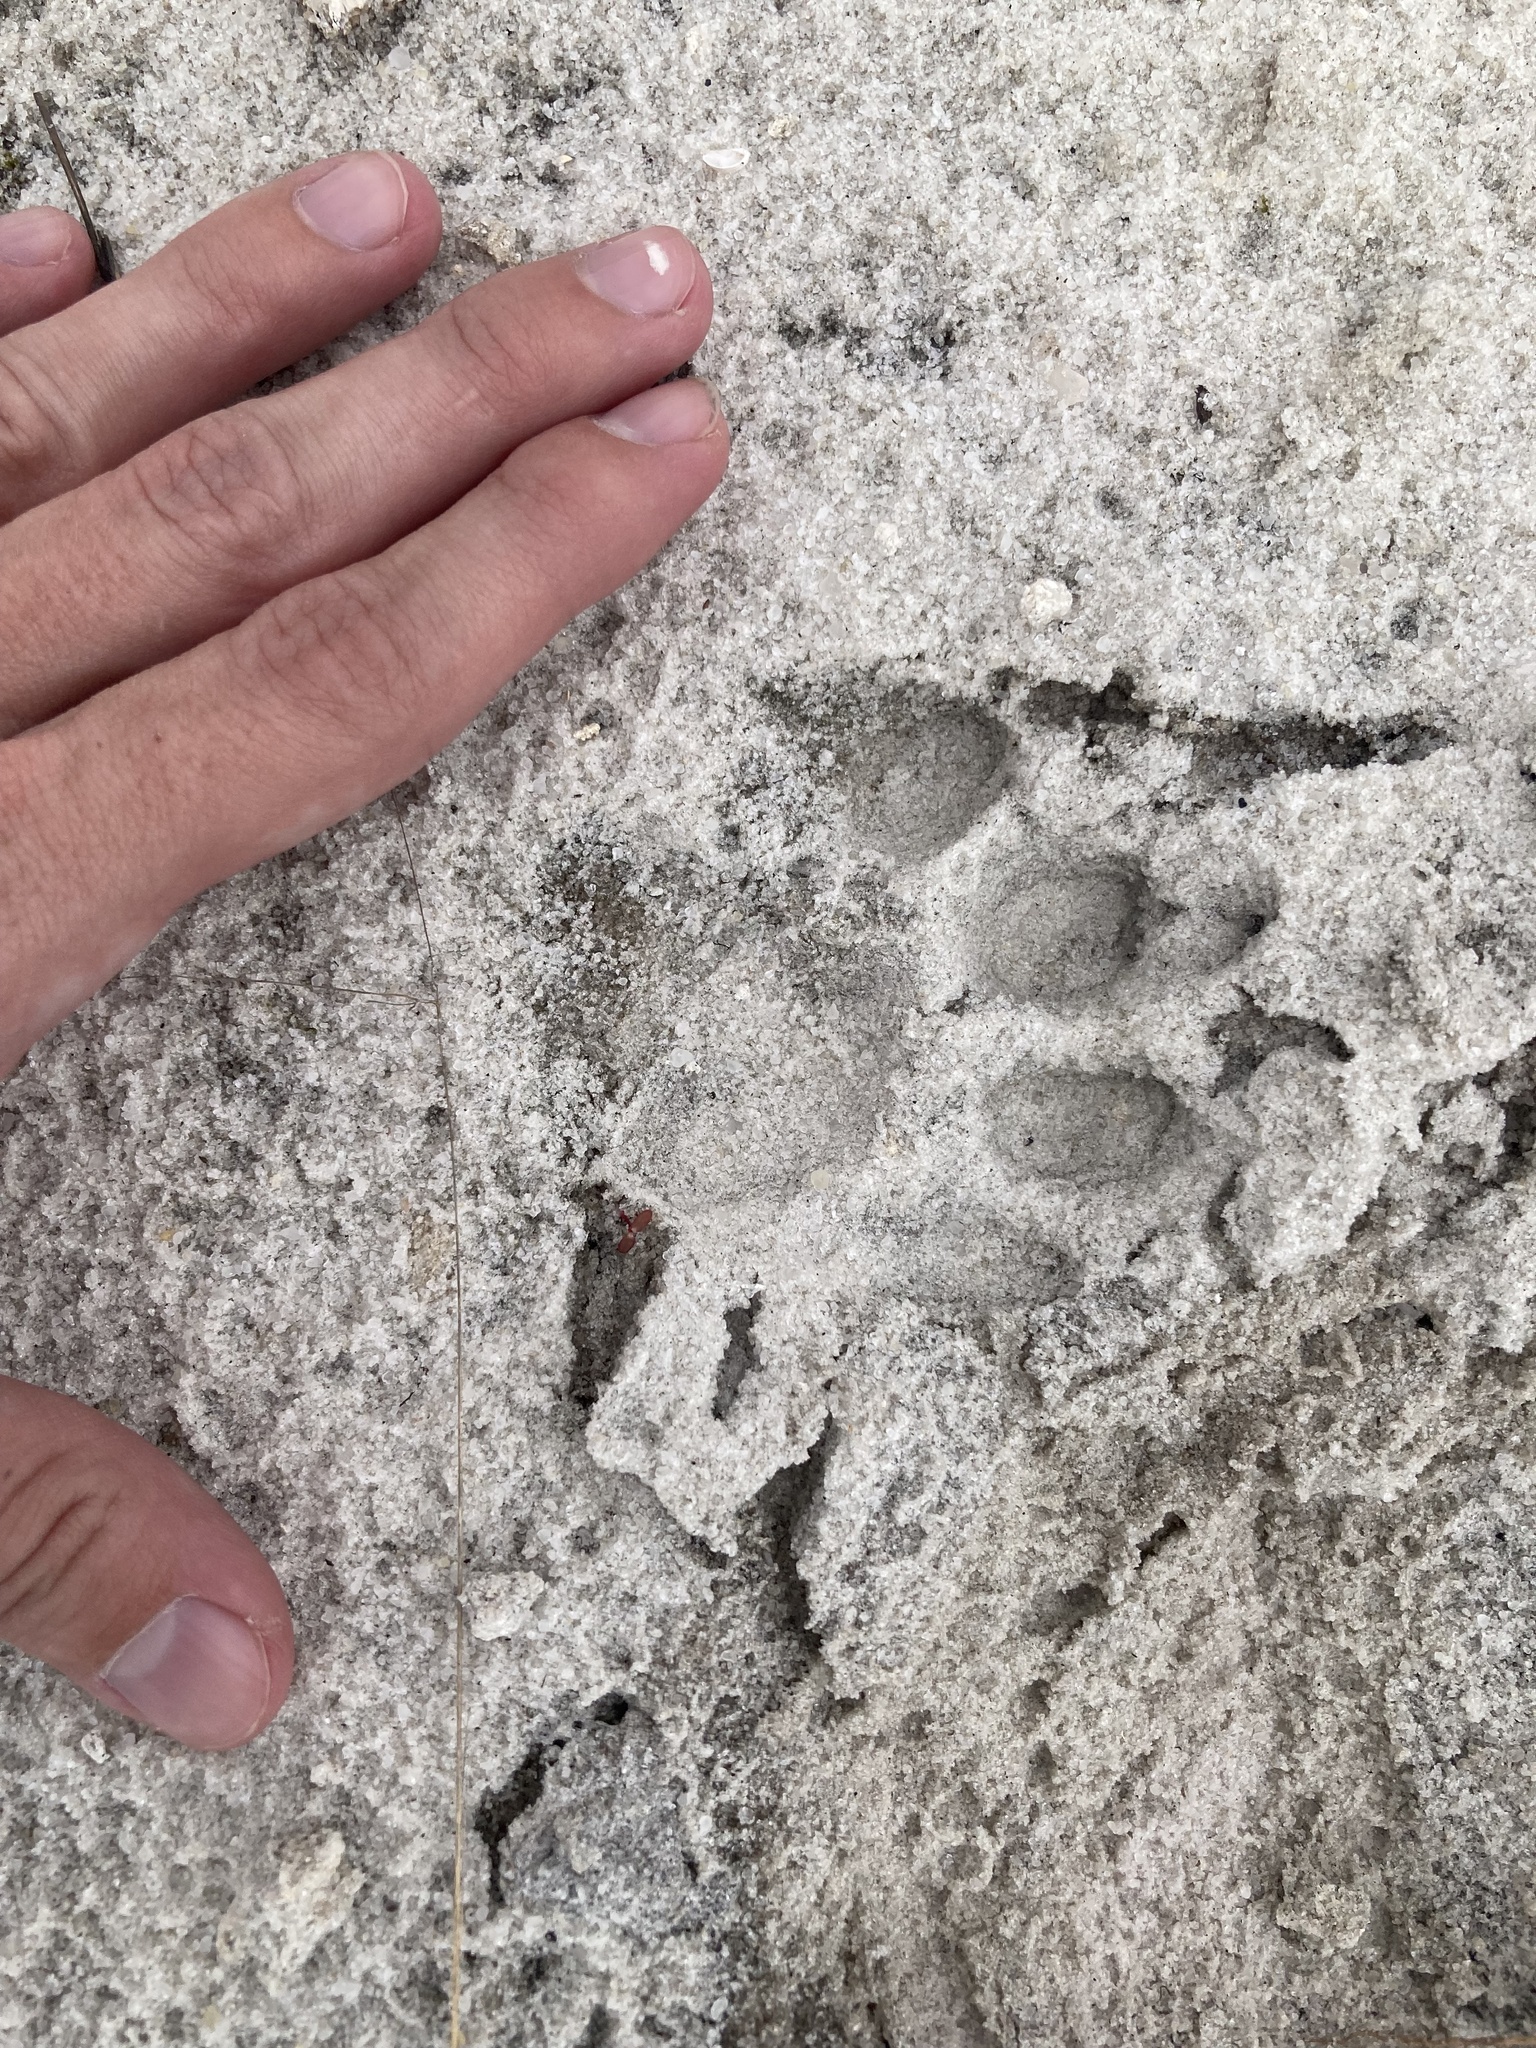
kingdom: Animalia
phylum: Chordata
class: Mammalia
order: Carnivora
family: Felidae
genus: Lynx
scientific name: Lynx rufus
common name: Bobcat
